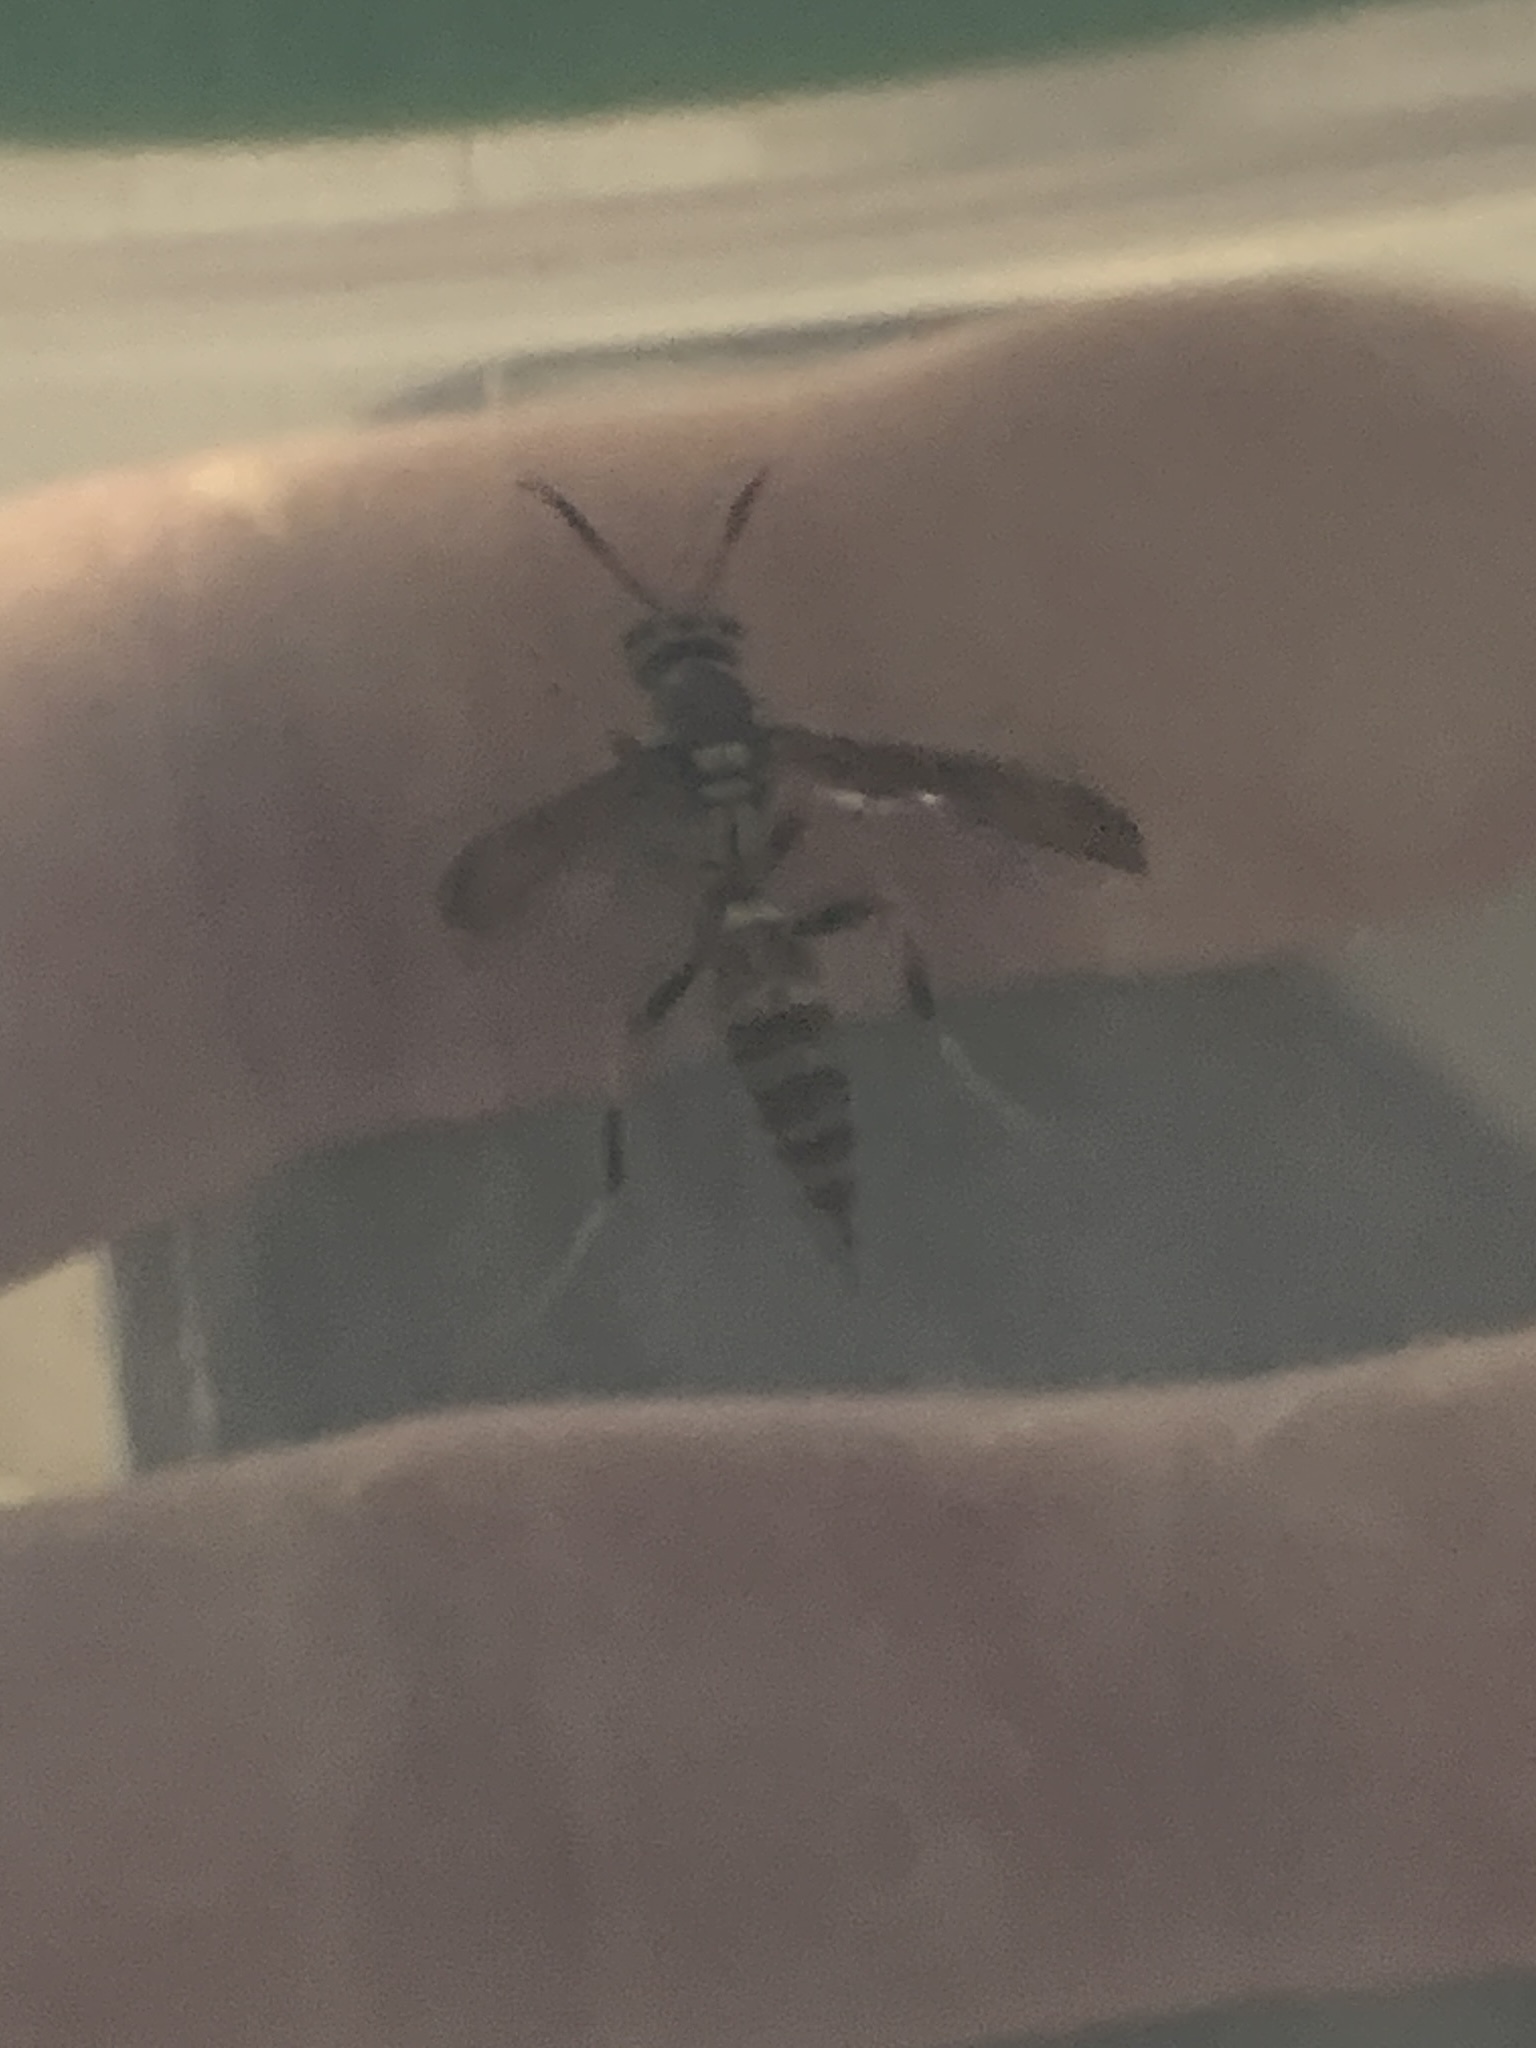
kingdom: Animalia
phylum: Arthropoda
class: Insecta
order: Hymenoptera
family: Eumenidae
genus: Polistes
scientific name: Polistes exclamans
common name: Paper wasp
